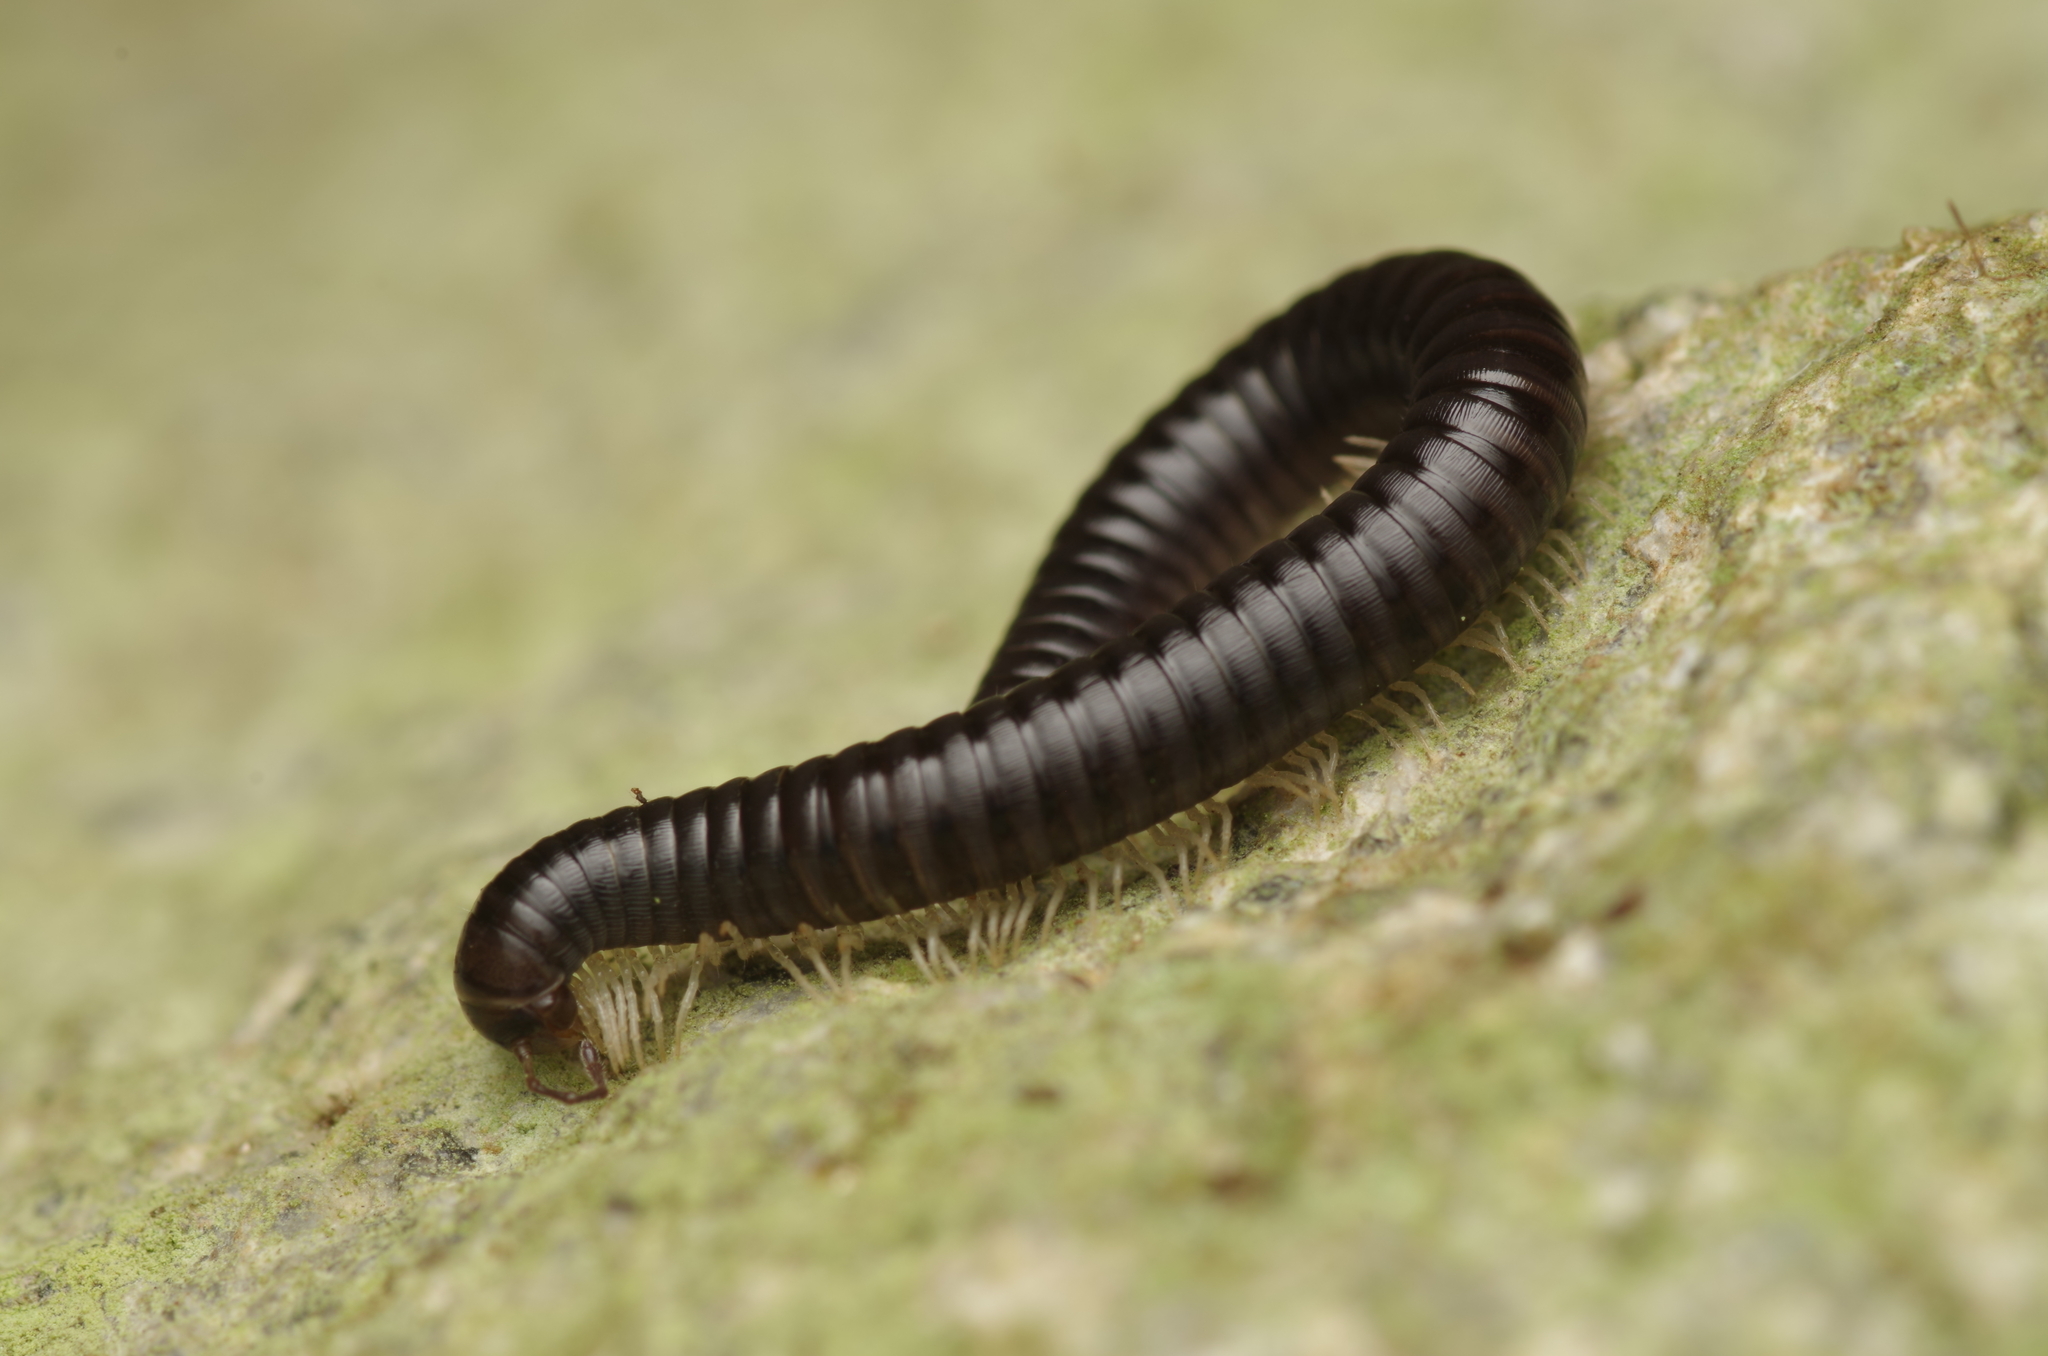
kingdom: Animalia
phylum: Arthropoda
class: Diplopoda
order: Julida
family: Julidae
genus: Tachypodoiulus
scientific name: Tachypodoiulus niger
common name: White-legged snake millipede
